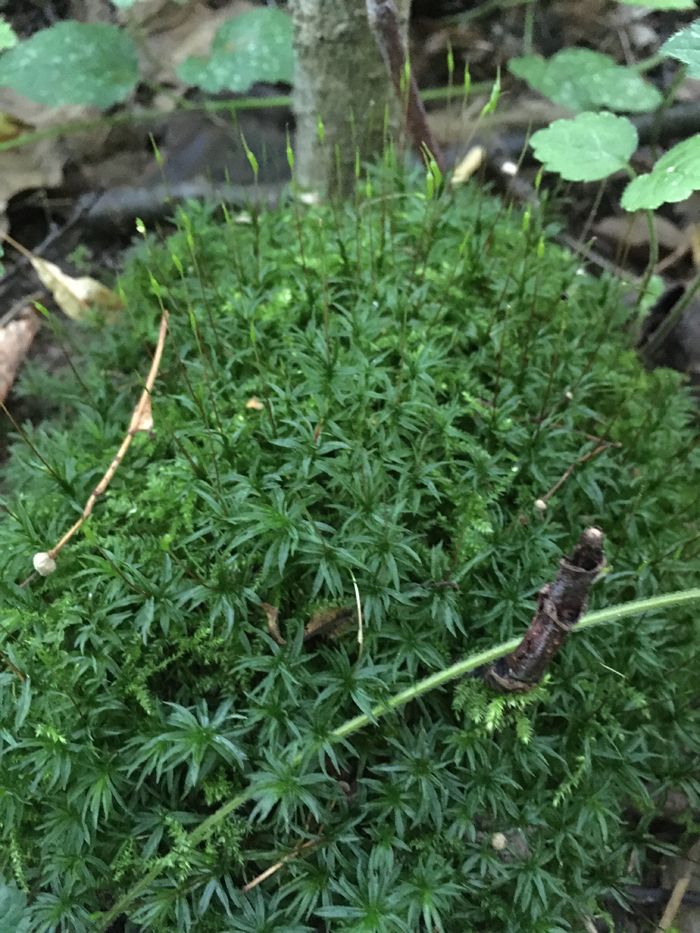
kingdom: Plantae
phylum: Bryophyta
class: Polytrichopsida
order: Polytrichales
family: Polytrichaceae
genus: Atrichum
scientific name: Atrichum undulatum
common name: Common smoothcap
